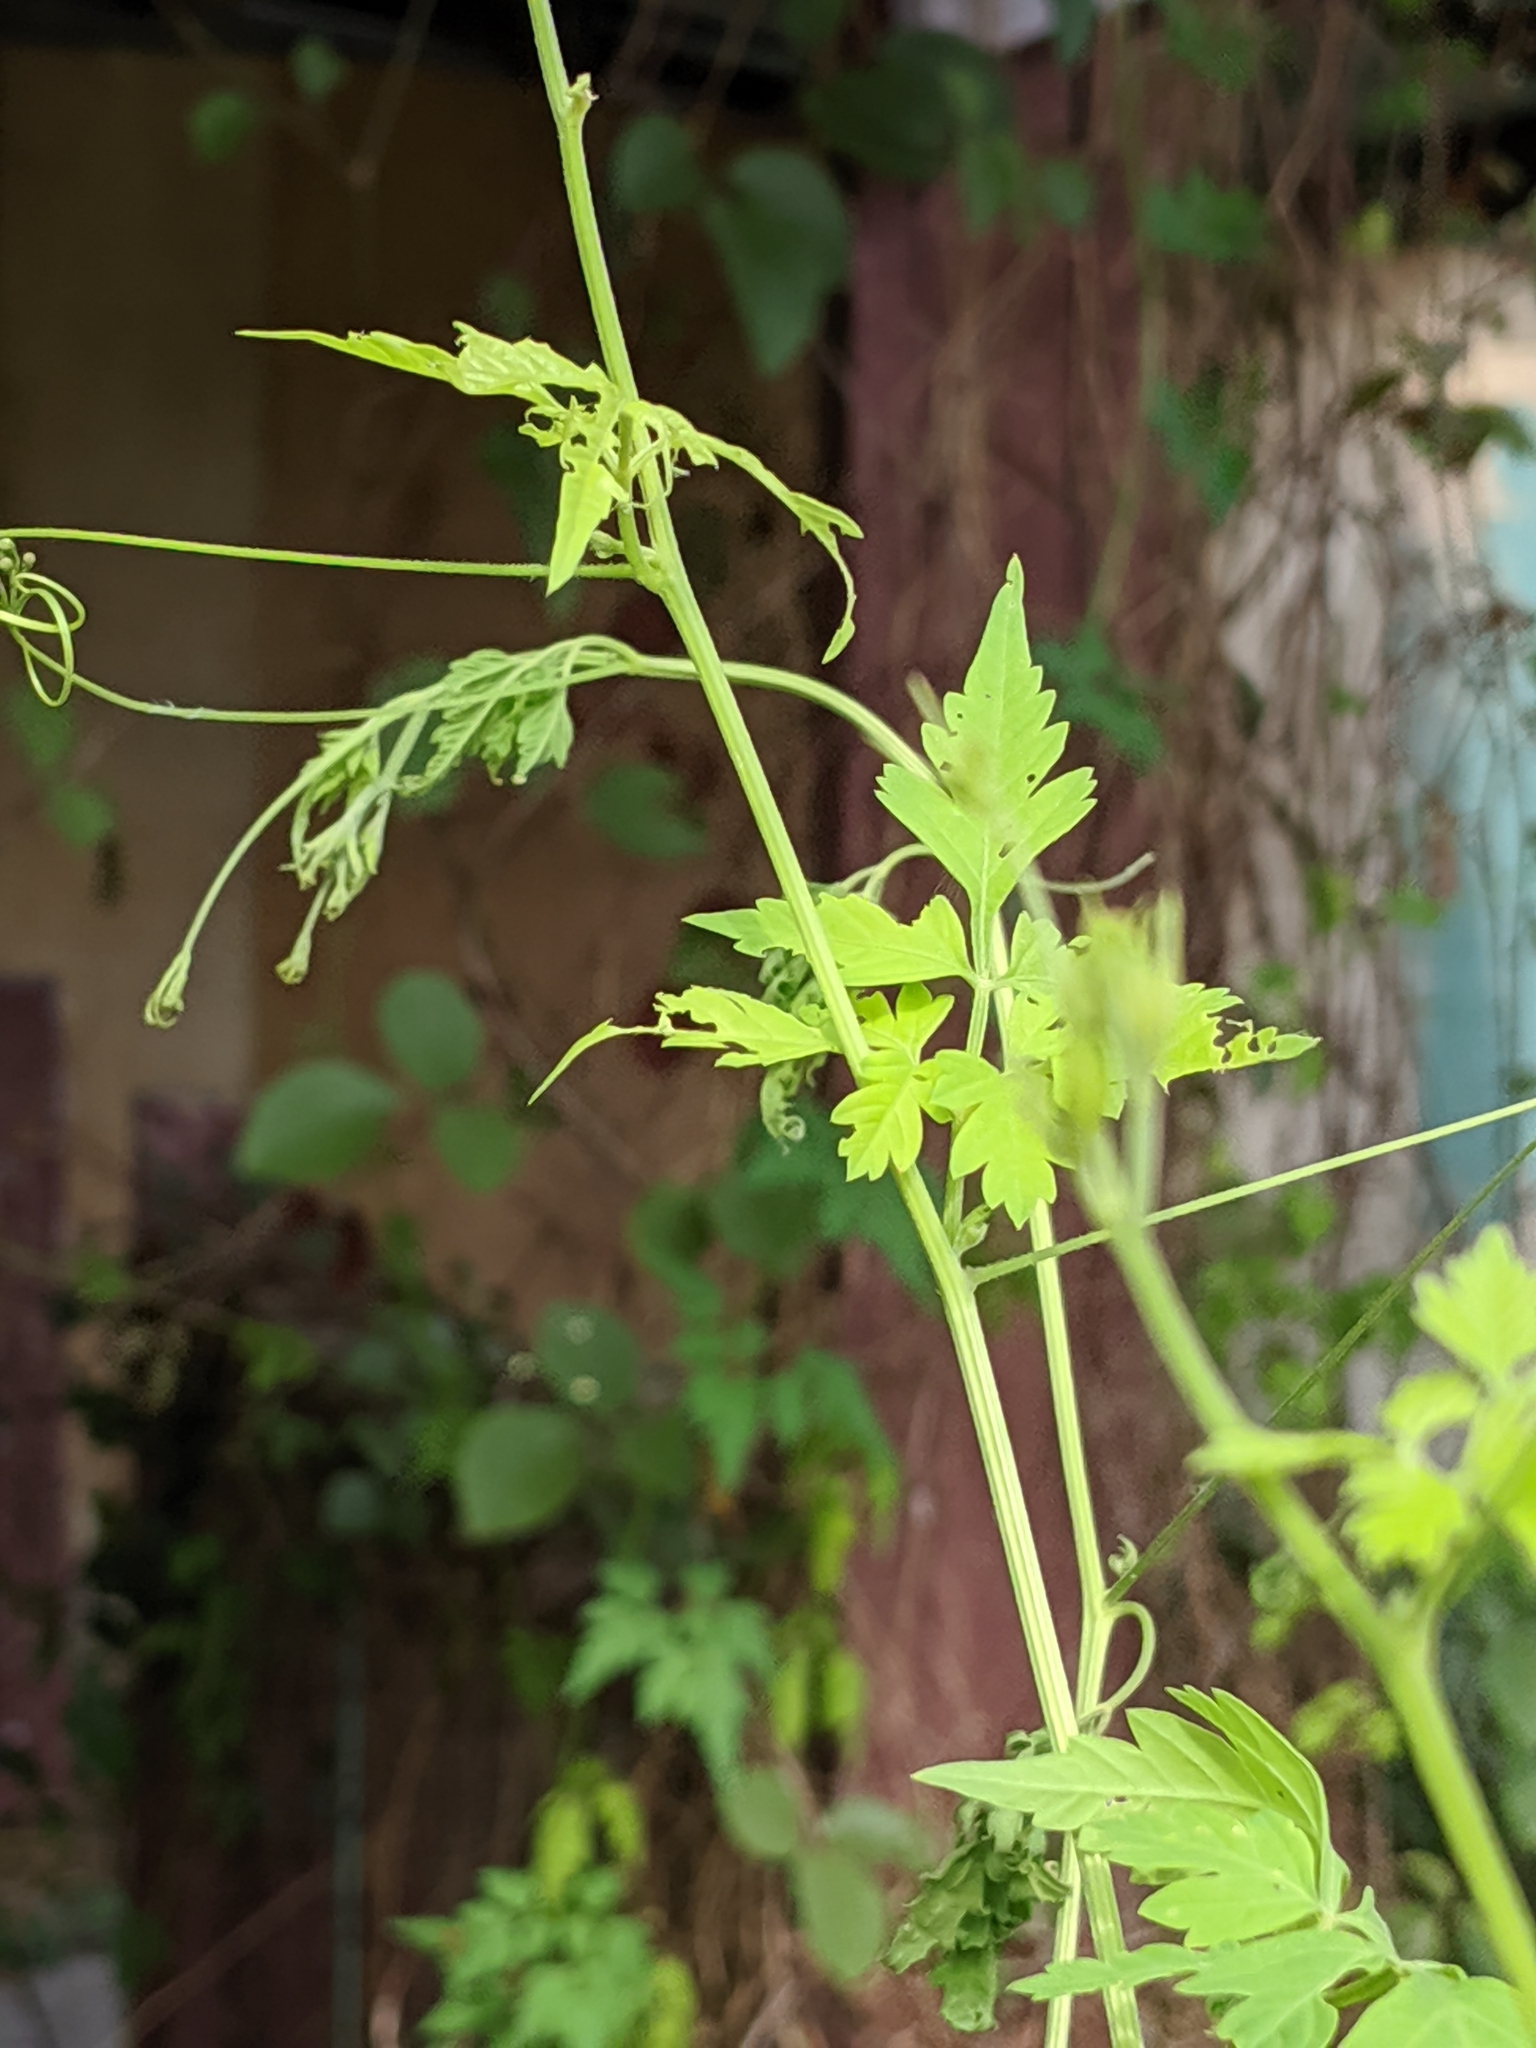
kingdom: Plantae
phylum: Tracheophyta
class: Magnoliopsida
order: Sapindales
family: Sapindaceae
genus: Cardiospermum
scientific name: Cardiospermum halicacabum
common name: Balloon vine
